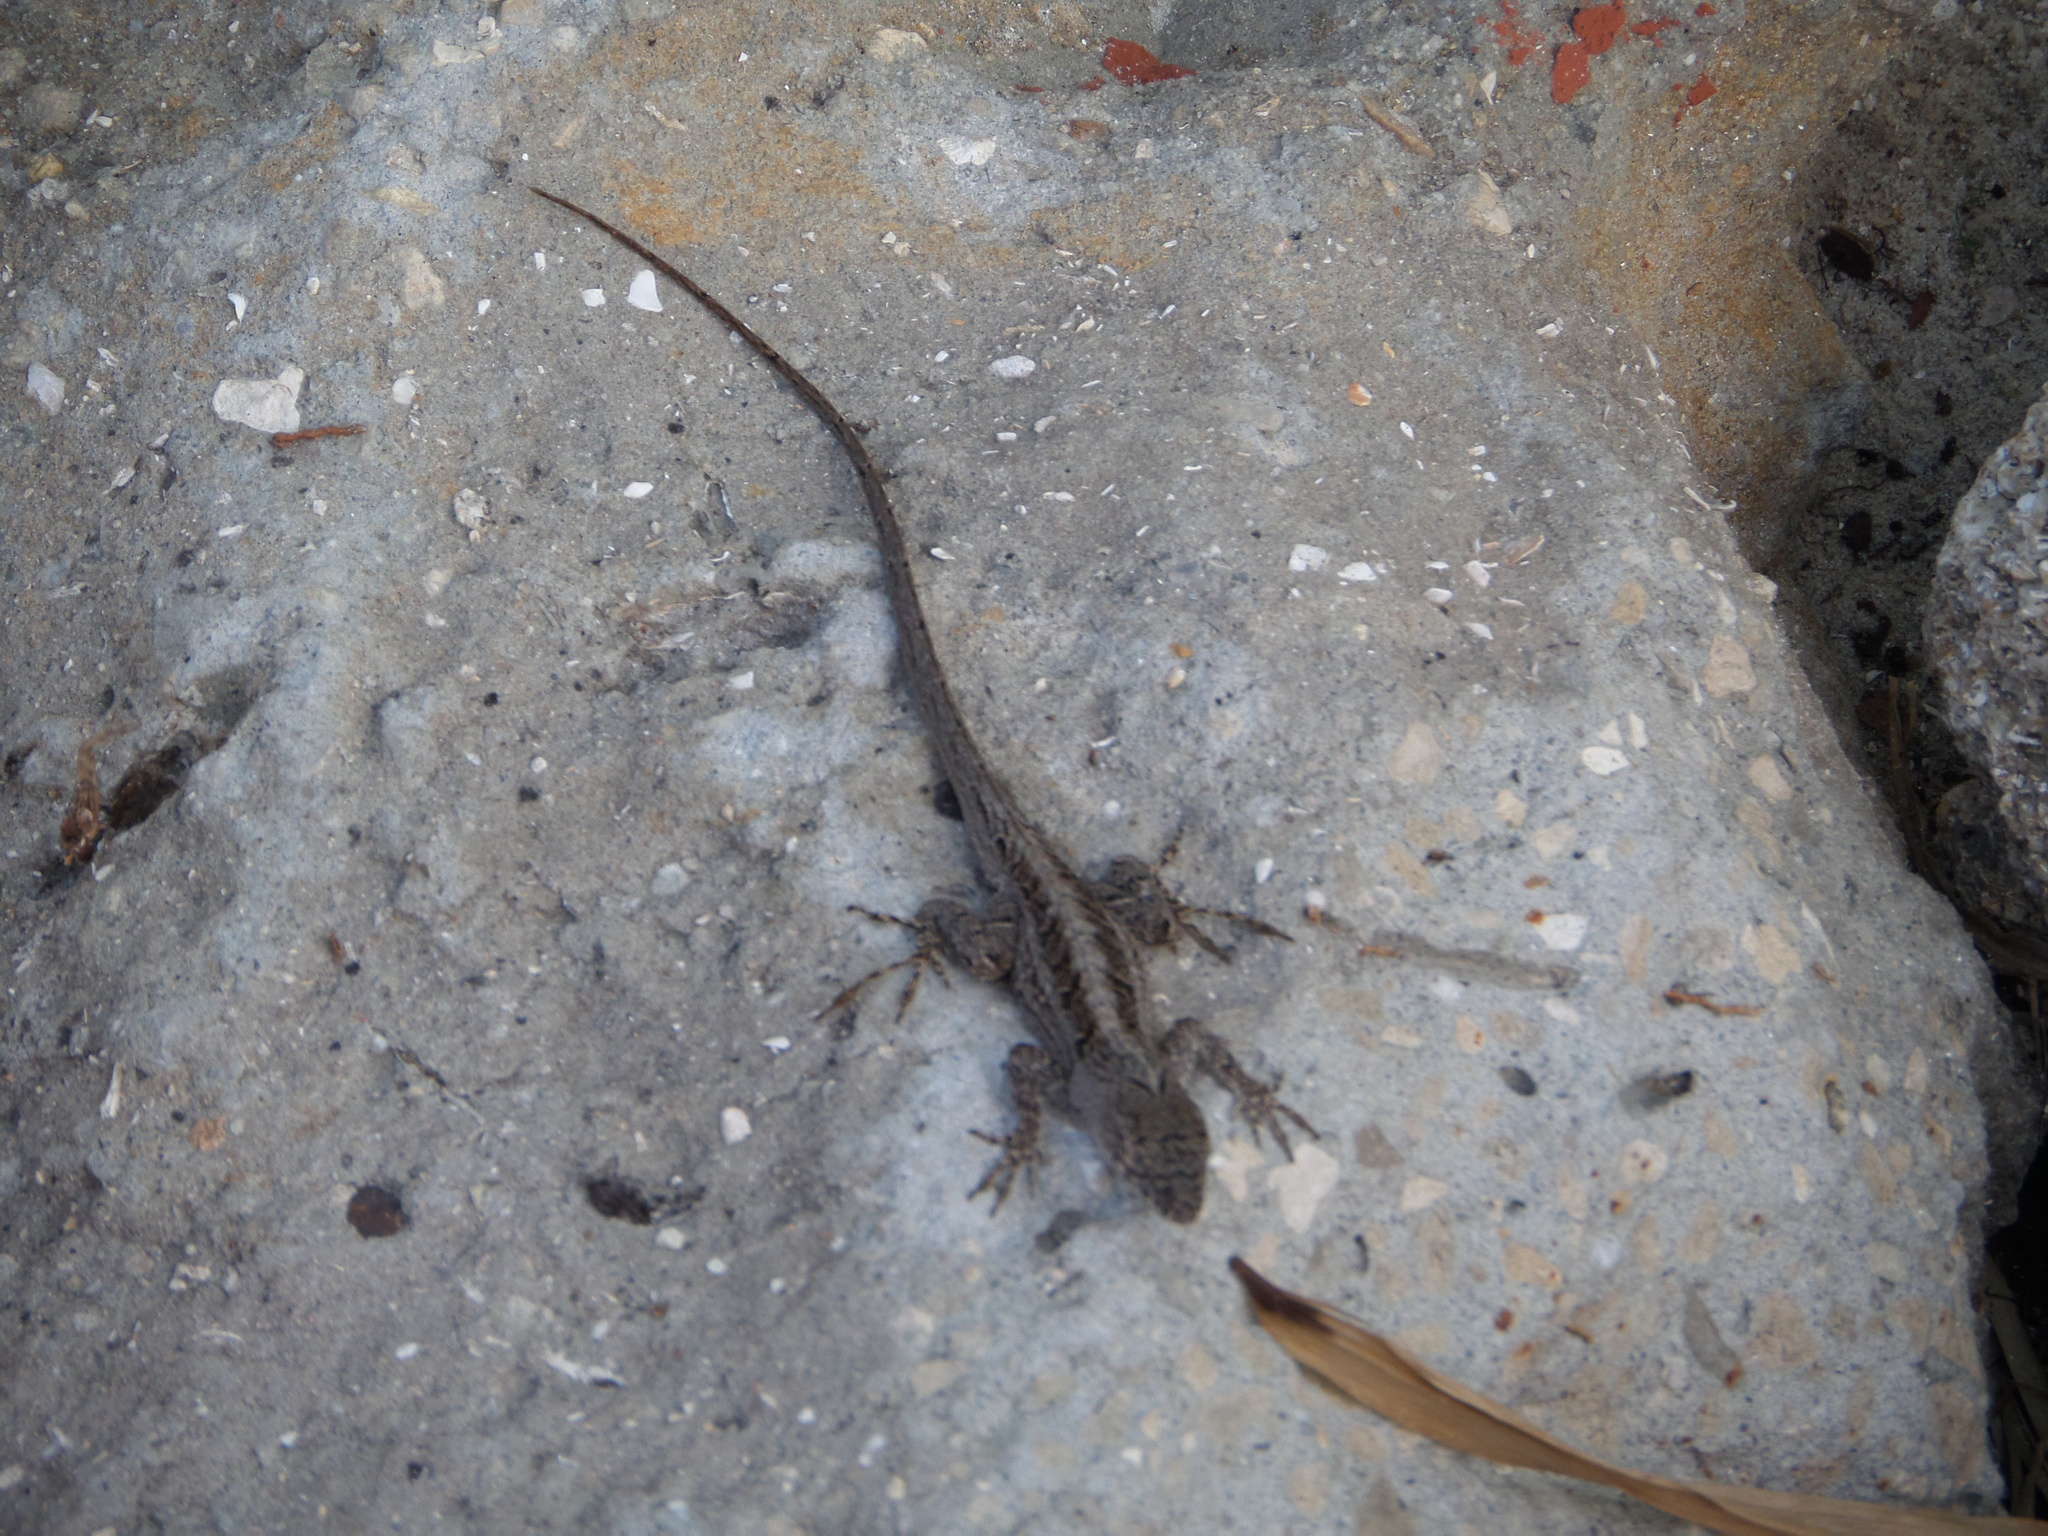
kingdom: Animalia
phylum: Chordata
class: Squamata
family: Dactyloidae
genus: Anolis
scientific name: Anolis sagrei
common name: Brown anole
